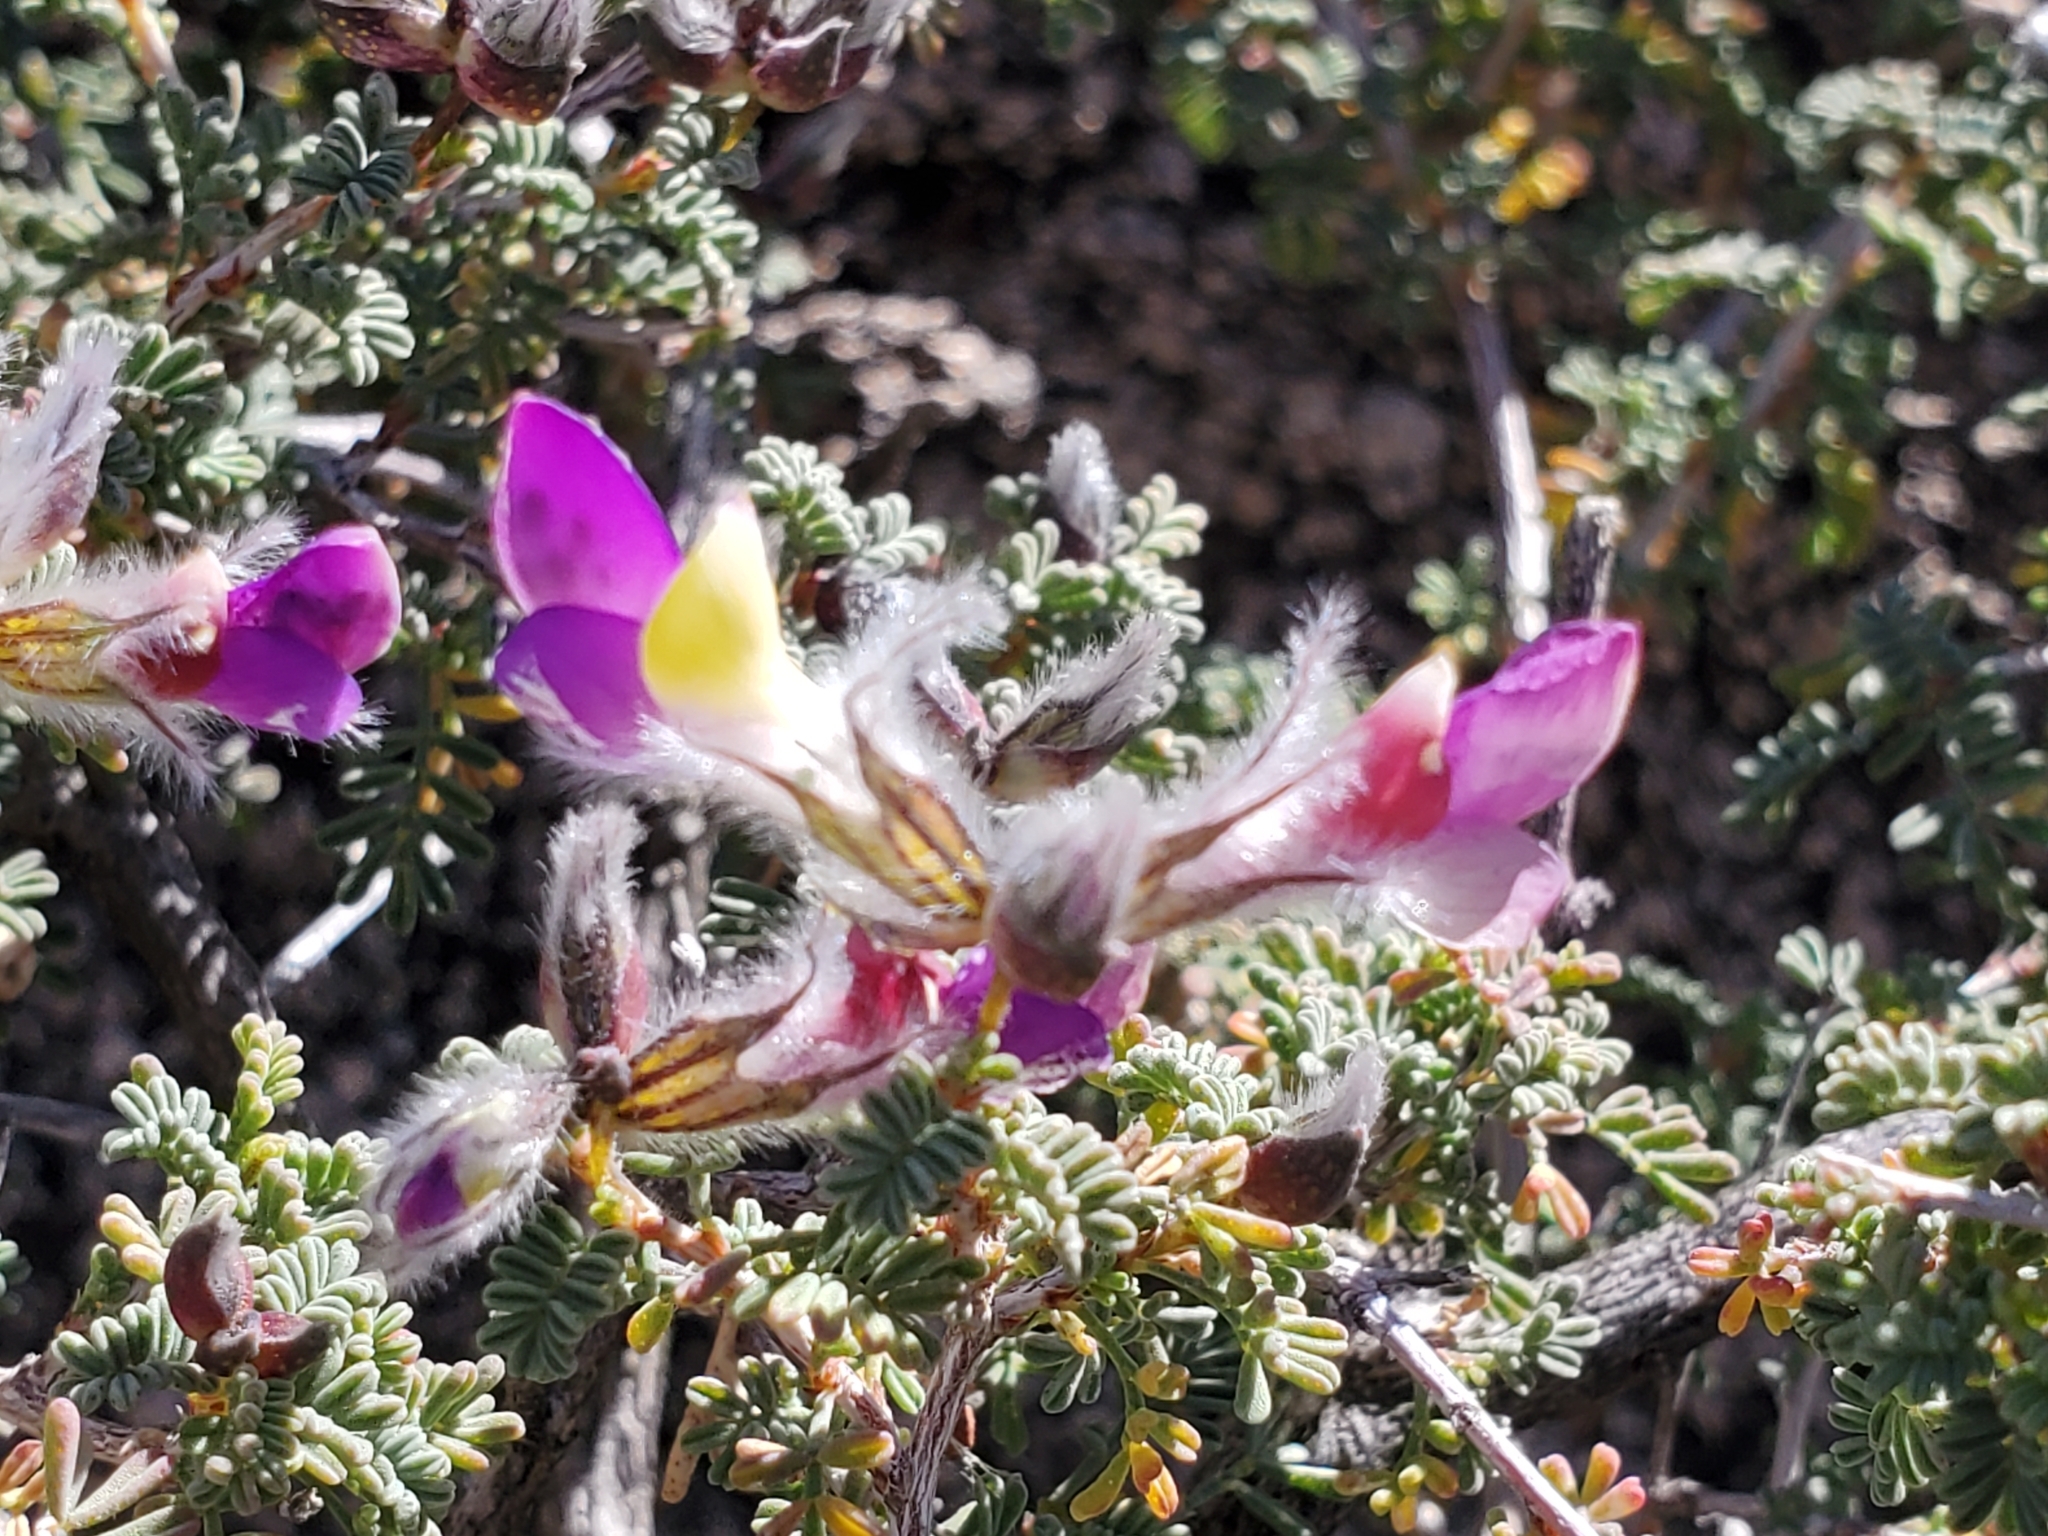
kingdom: Plantae
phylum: Tracheophyta
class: Magnoliopsida
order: Fabales
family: Fabaceae
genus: Dalea
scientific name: Dalea formosa
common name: Feather-plume dalea
